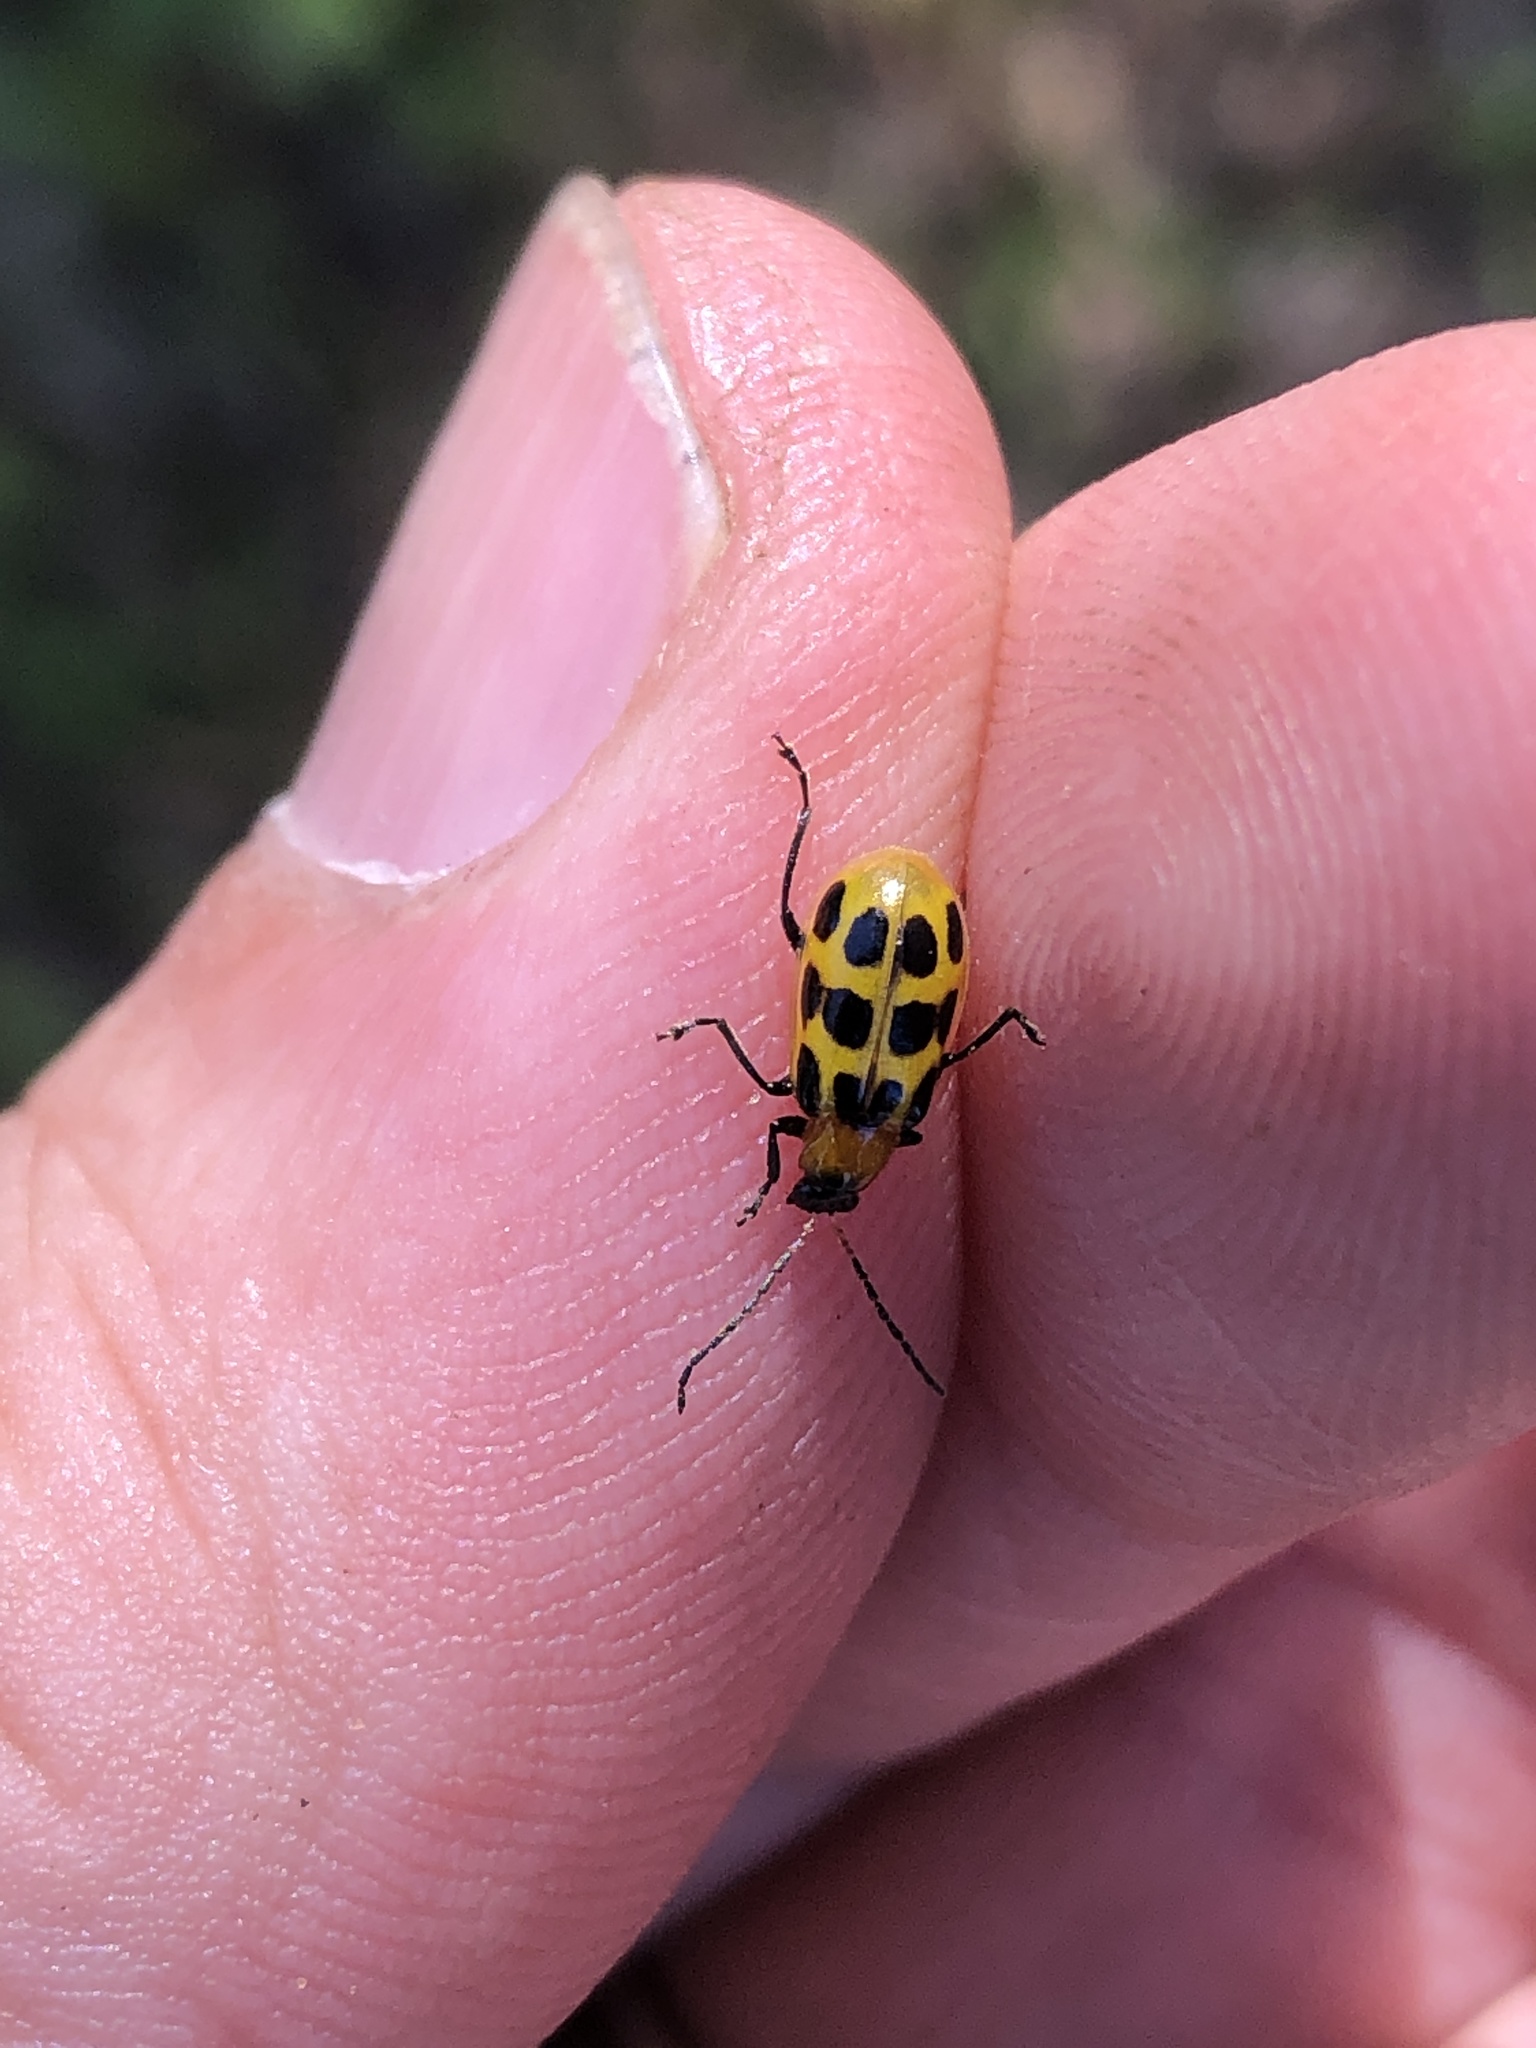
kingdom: Animalia
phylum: Arthropoda
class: Insecta
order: Coleoptera
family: Chrysomelidae
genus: Diabrotica
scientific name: Diabrotica undecimpunctata
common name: Spotted cucumber beetle
